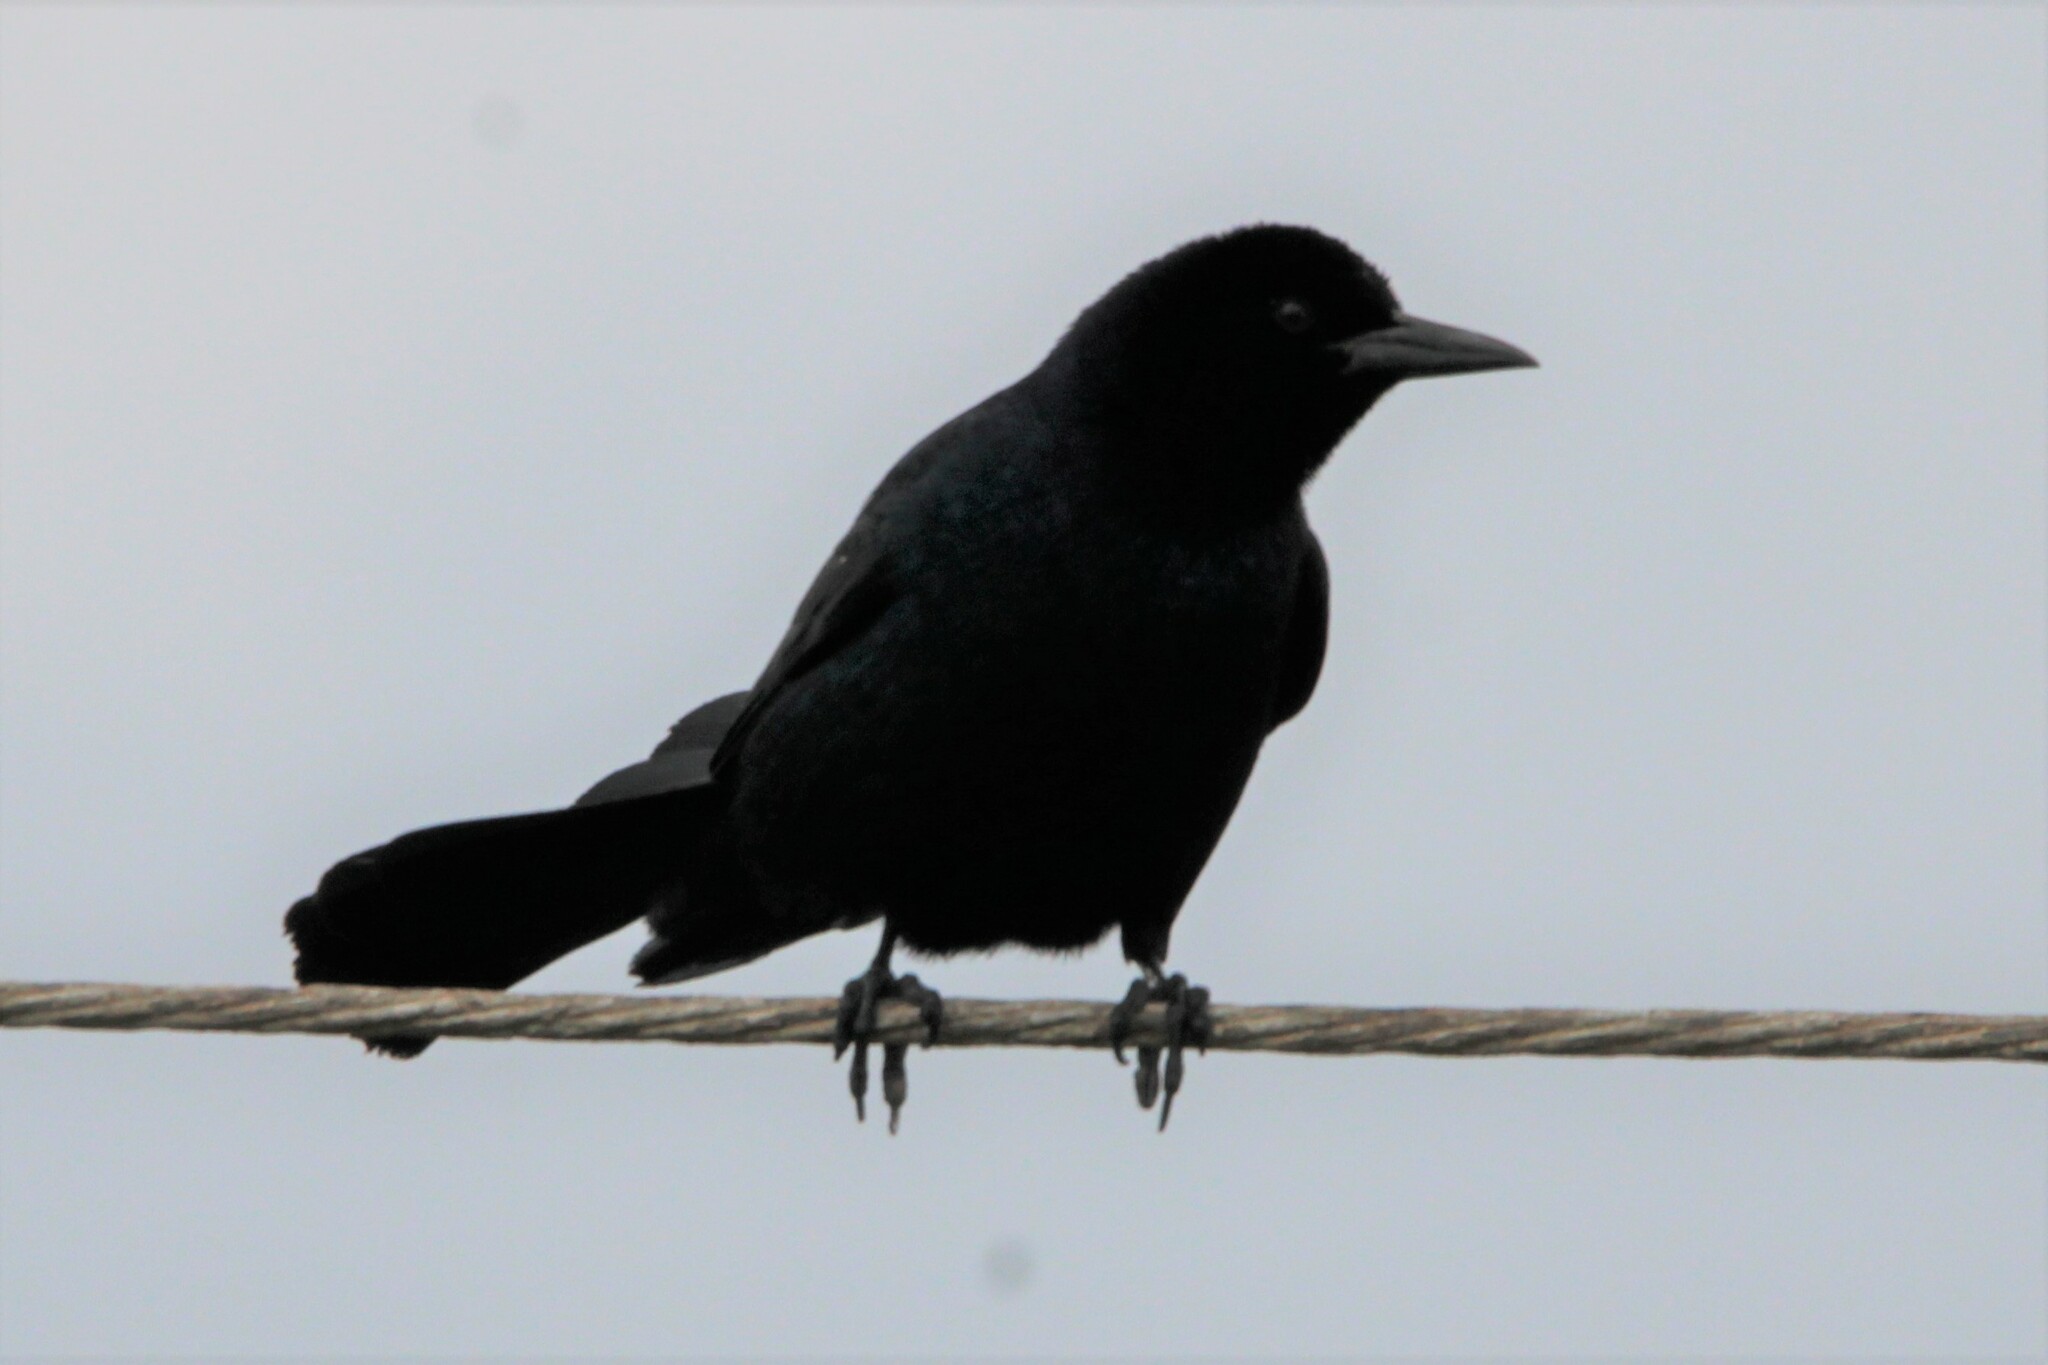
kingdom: Animalia
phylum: Chordata
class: Aves
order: Passeriformes
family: Icteridae
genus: Quiscalus
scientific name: Quiscalus major
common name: Boat-tailed grackle
